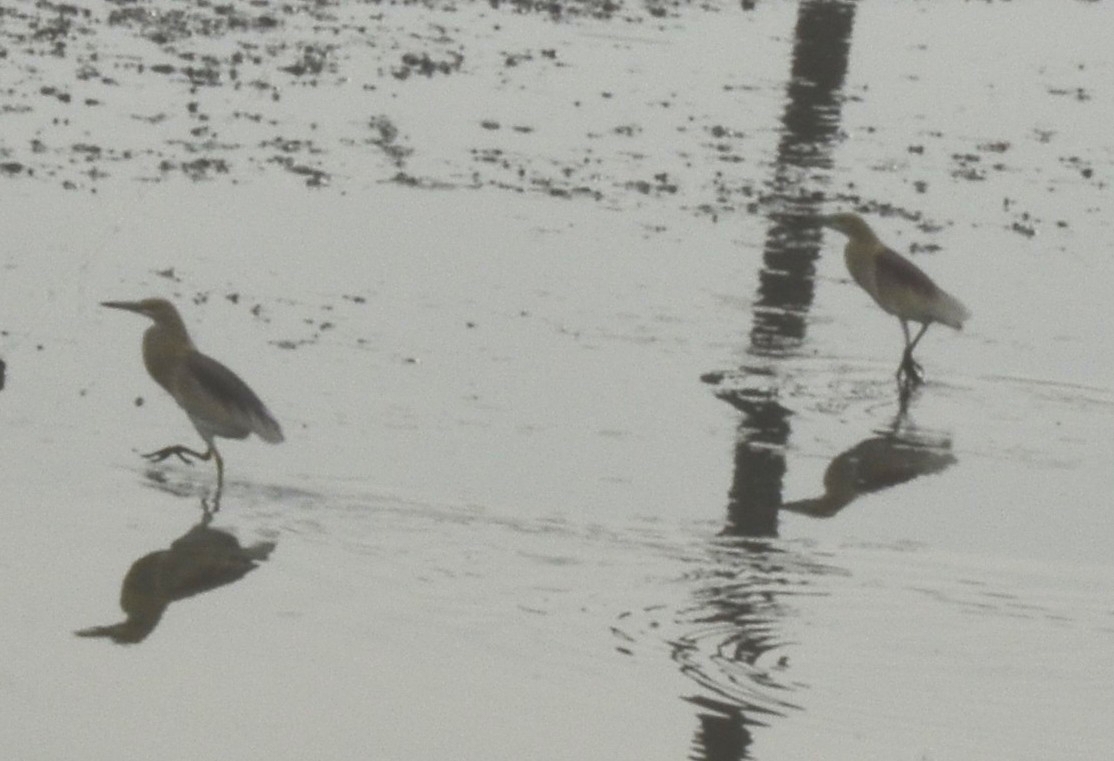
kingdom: Animalia
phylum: Chordata
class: Aves
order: Pelecaniformes
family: Ardeidae
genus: Ardeola
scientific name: Ardeola grayii
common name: Indian pond heron
